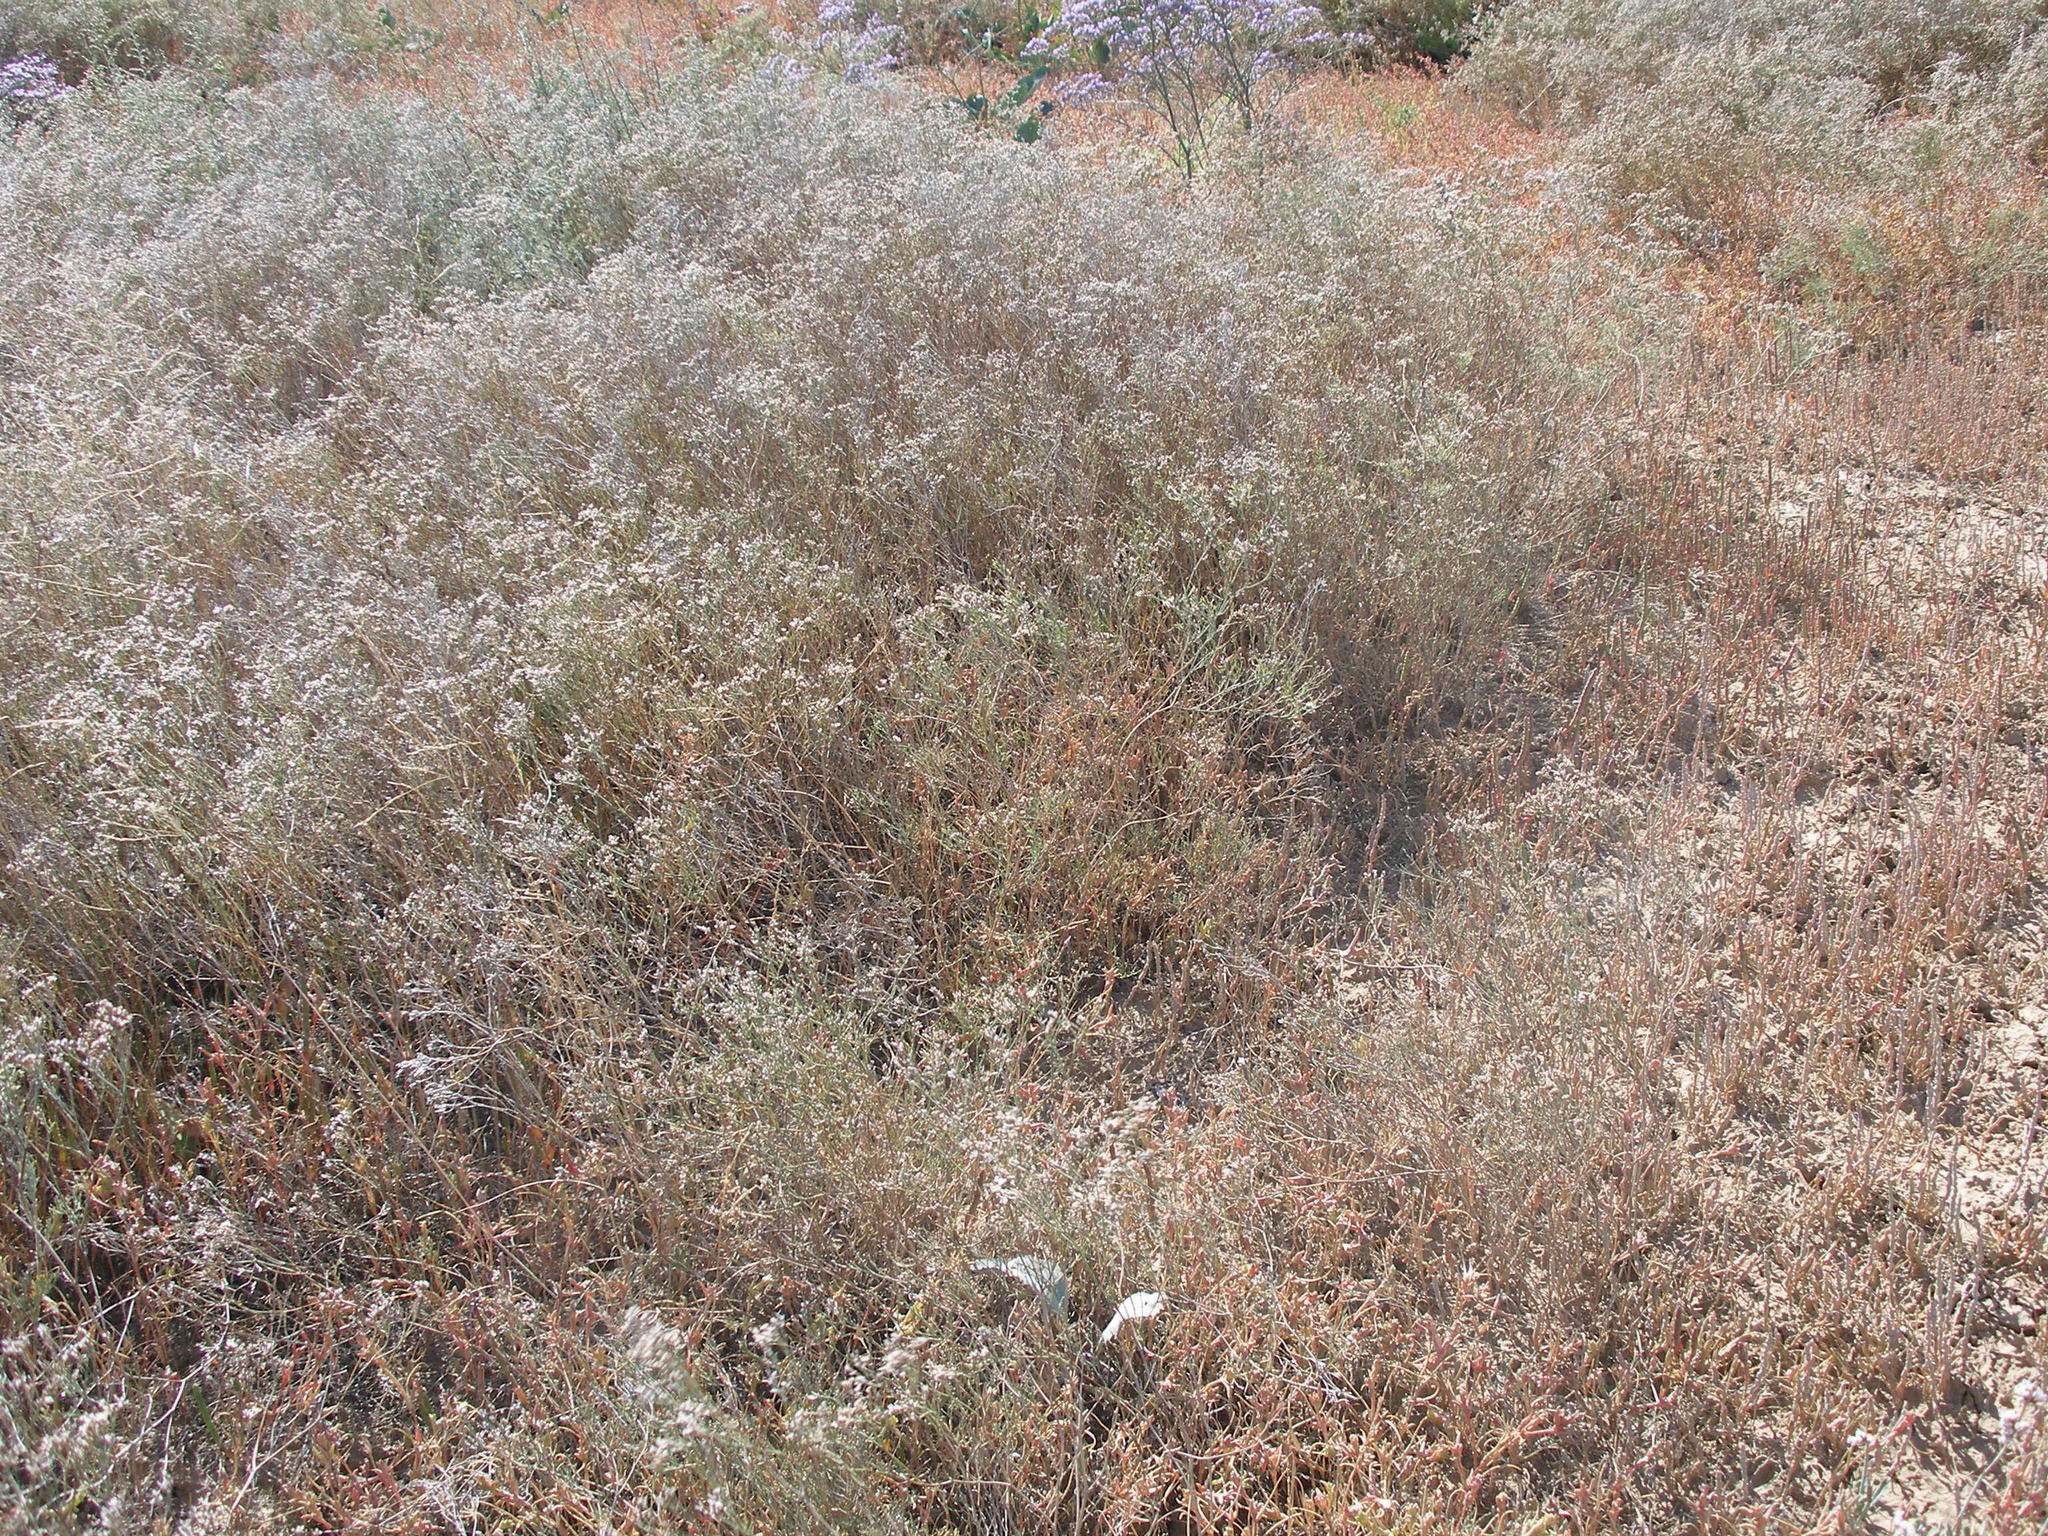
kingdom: Plantae
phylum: Tracheophyta
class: Magnoliopsida
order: Caryophyllales
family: Plumbaginaceae
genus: Limonium
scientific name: Limonium bellidifolium
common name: Matted sea-lavender
